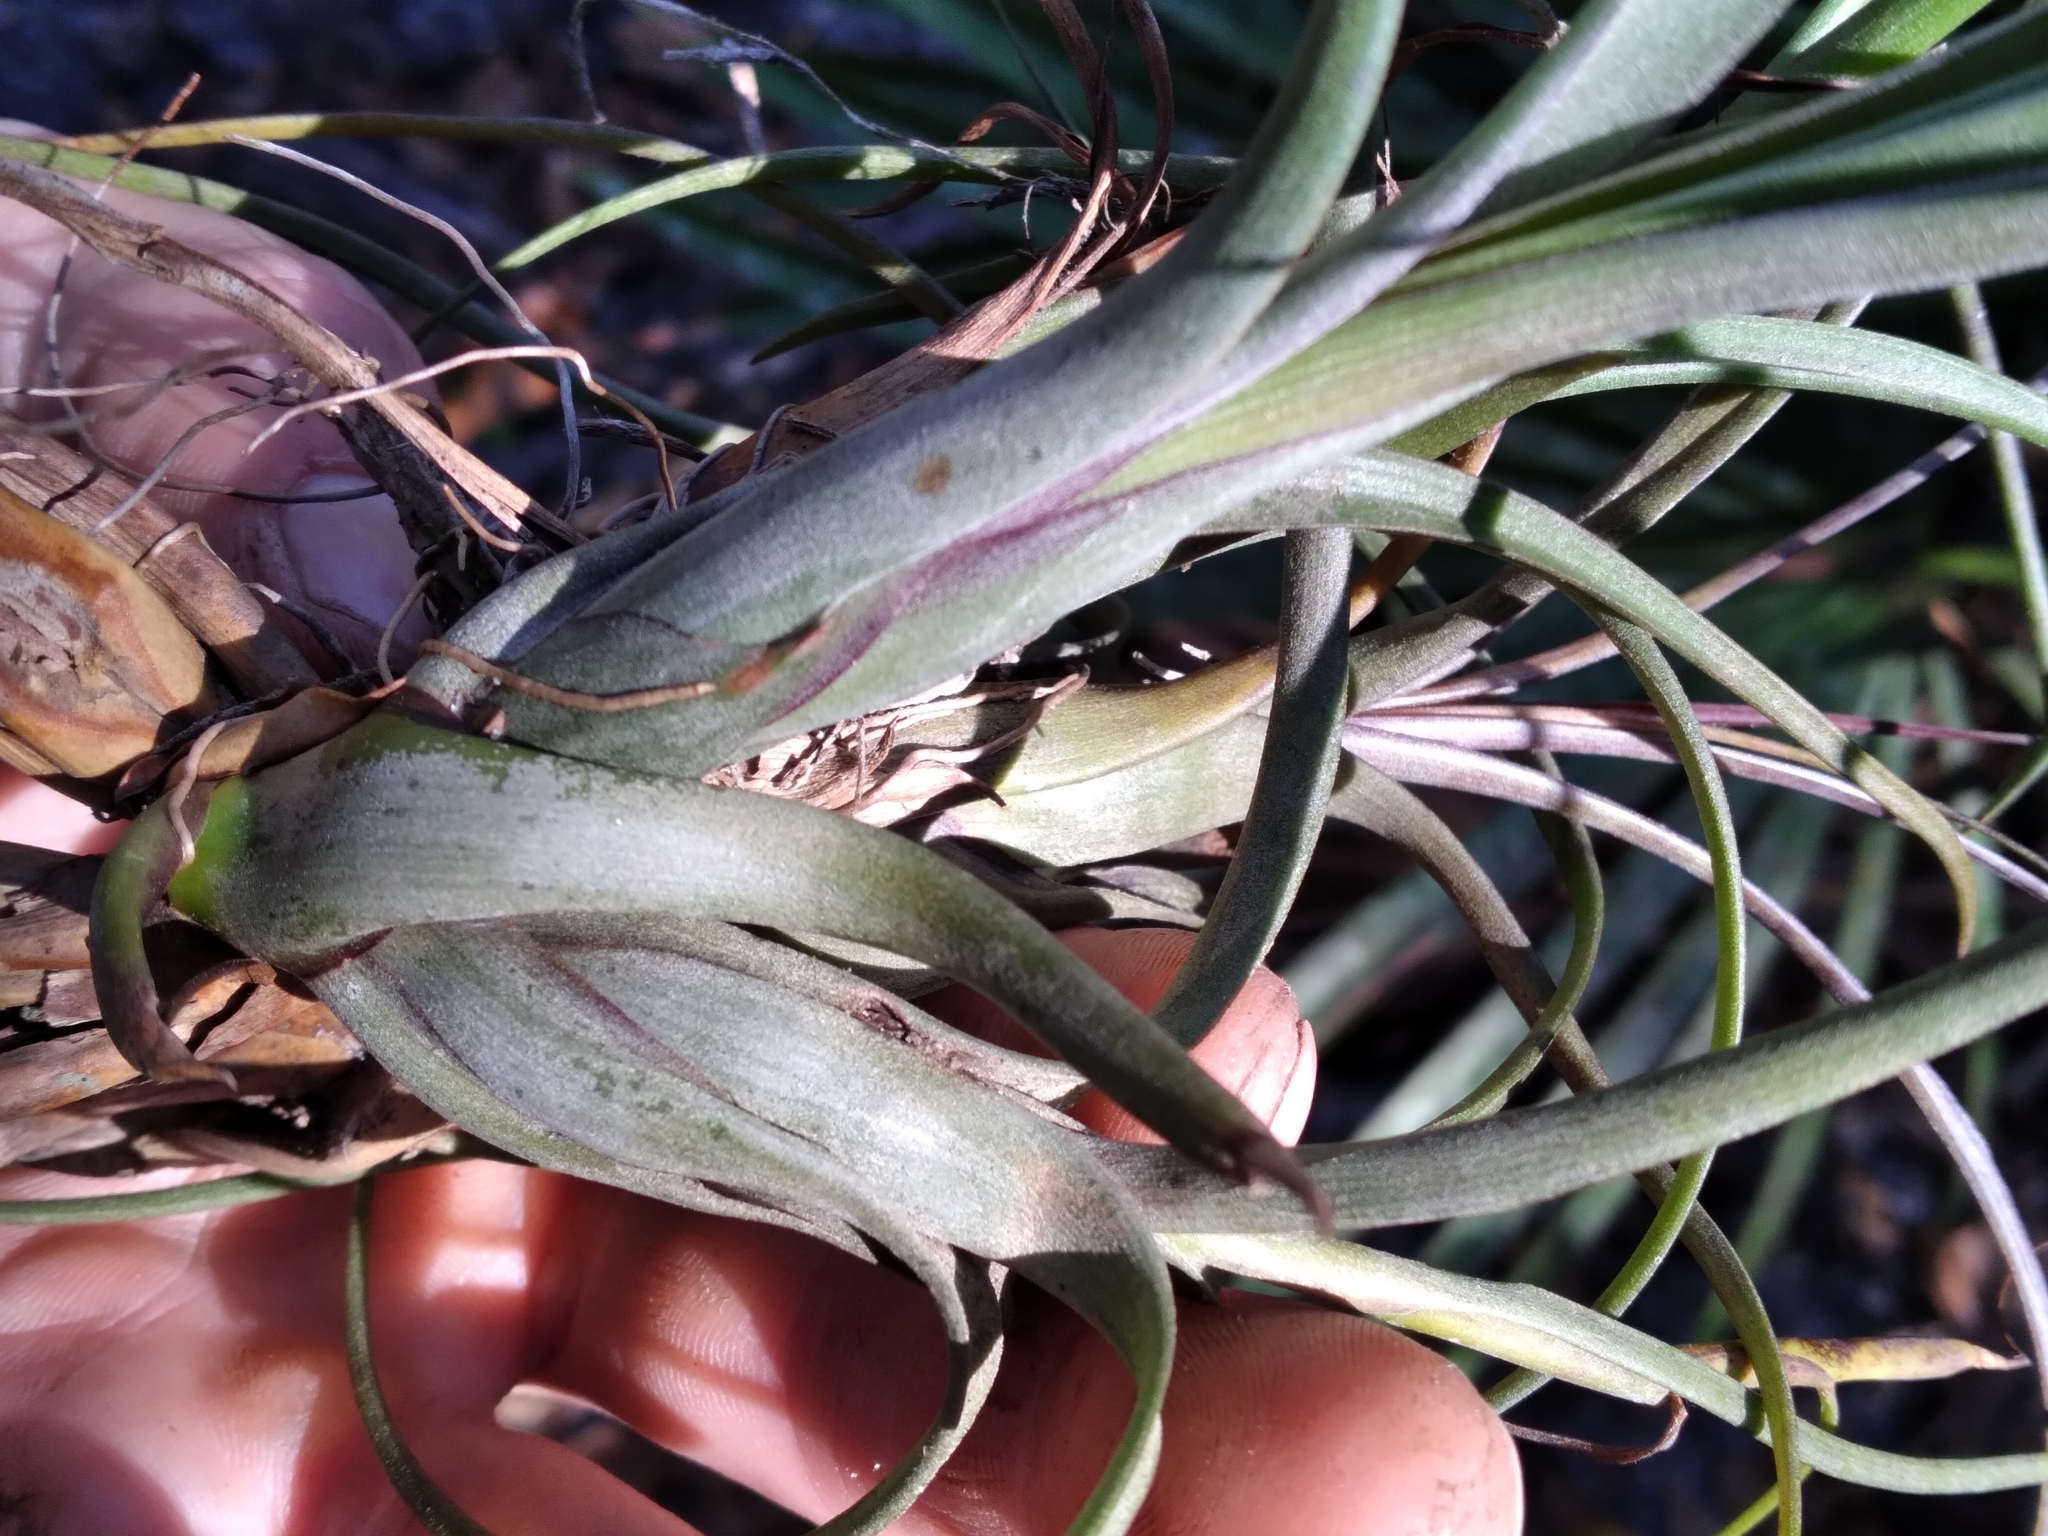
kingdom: Plantae
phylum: Tracheophyta
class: Liliopsida
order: Poales
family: Bromeliaceae
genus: Tillandsia
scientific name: Tillandsia balbisiana
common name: Northern needleleaf
